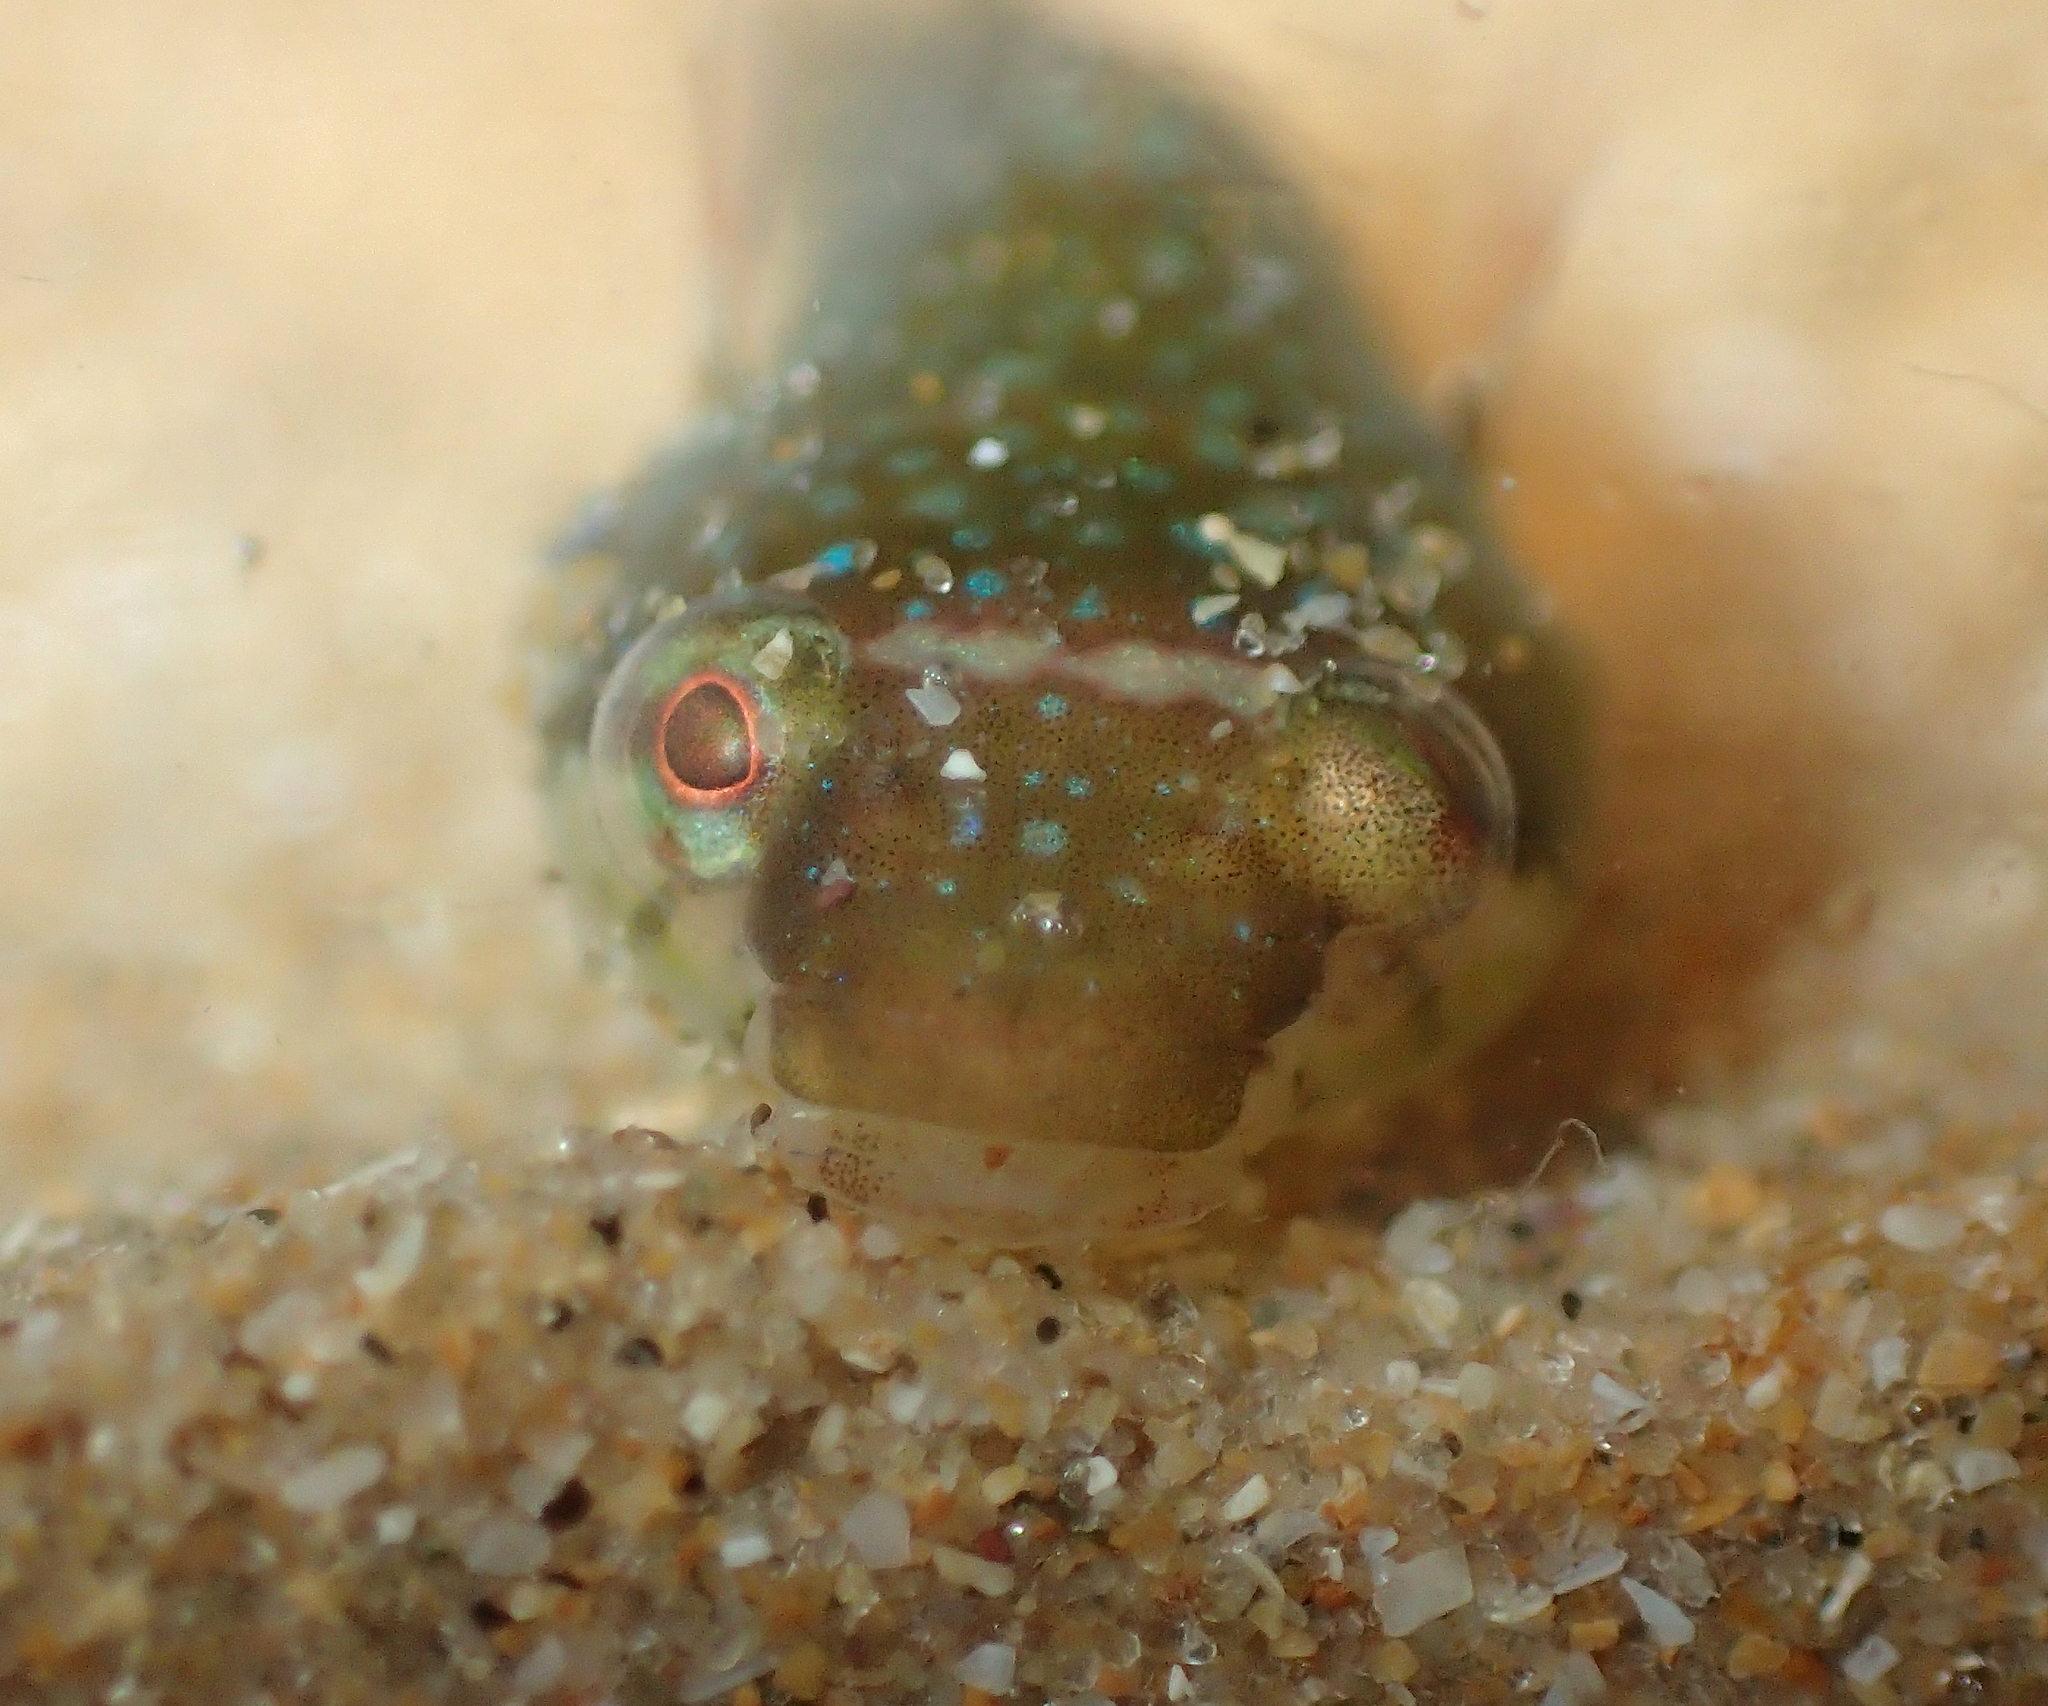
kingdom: Animalia
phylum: Chordata
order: Gobiesociformes
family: Gobiesocidae
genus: Apletodon
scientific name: Apletodon dentatus
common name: Small-headed clingfish
